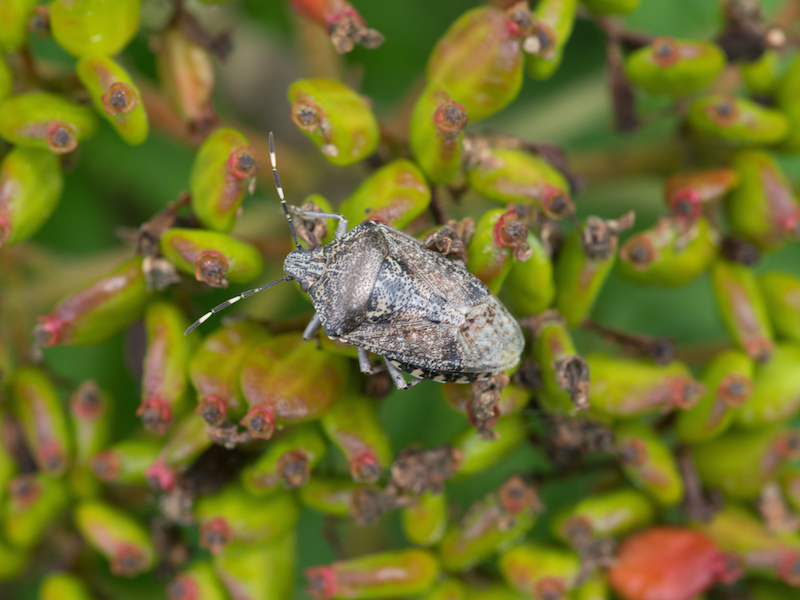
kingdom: Animalia
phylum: Arthropoda
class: Insecta
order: Hemiptera
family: Pentatomidae
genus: Rhaphigaster
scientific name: Rhaphigaster nebulosa
